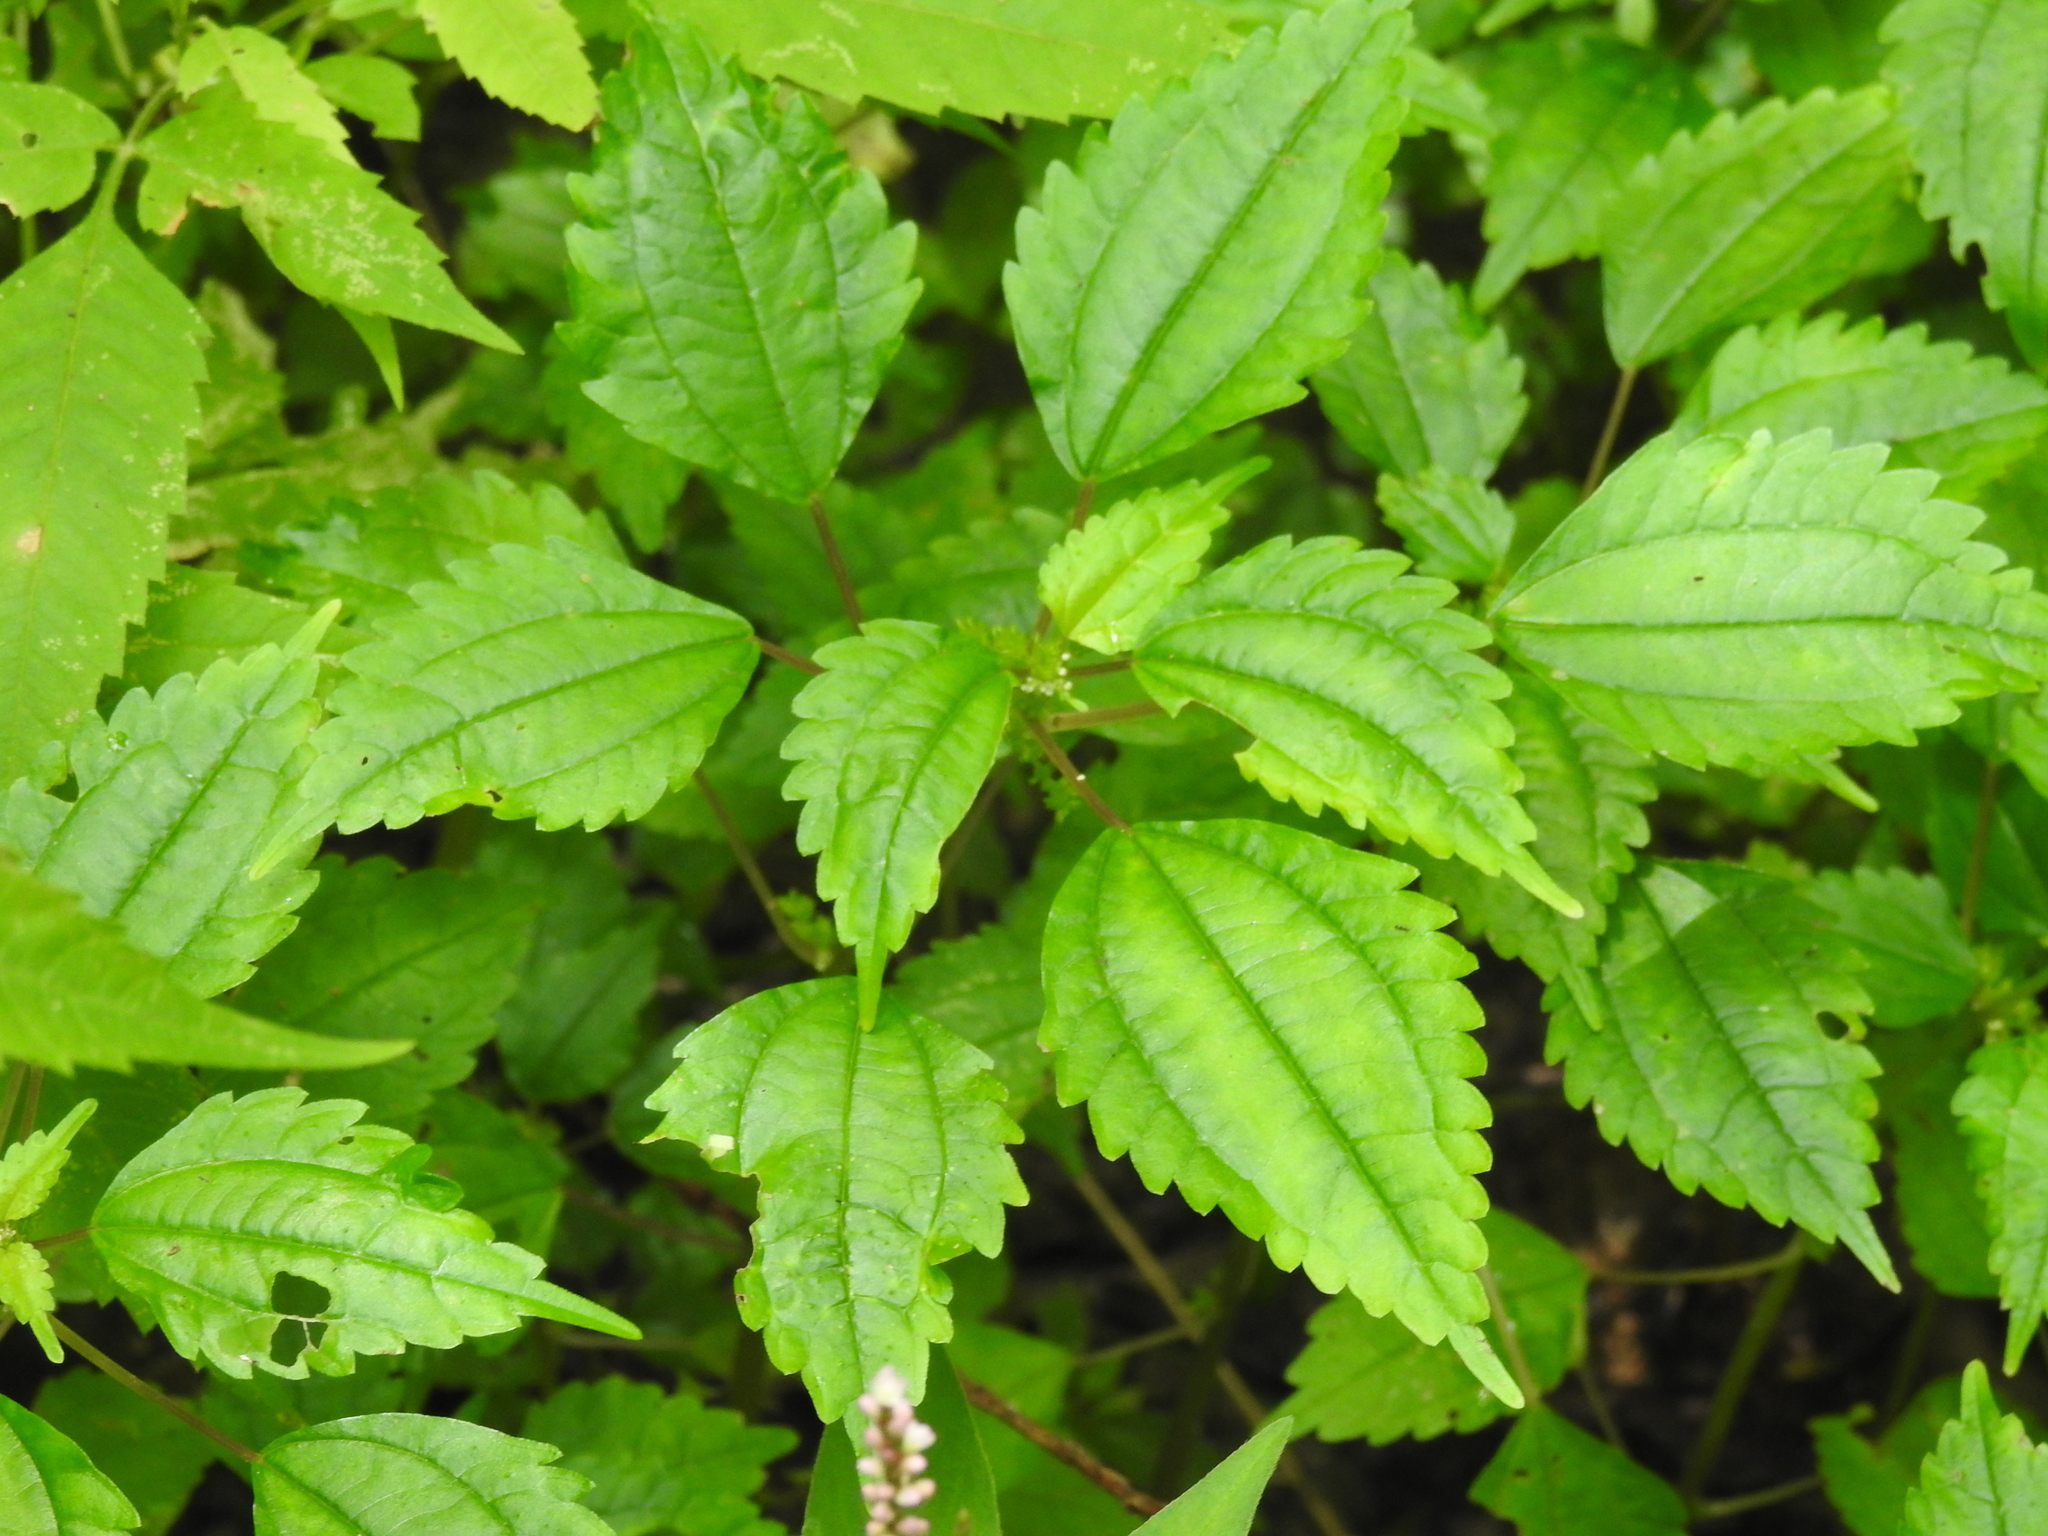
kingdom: Plantae
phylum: Tracheophyta
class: Magnoliopsida
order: Rosales
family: Urticaceae
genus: Pilea
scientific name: Pilea pumila
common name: Clearweed
